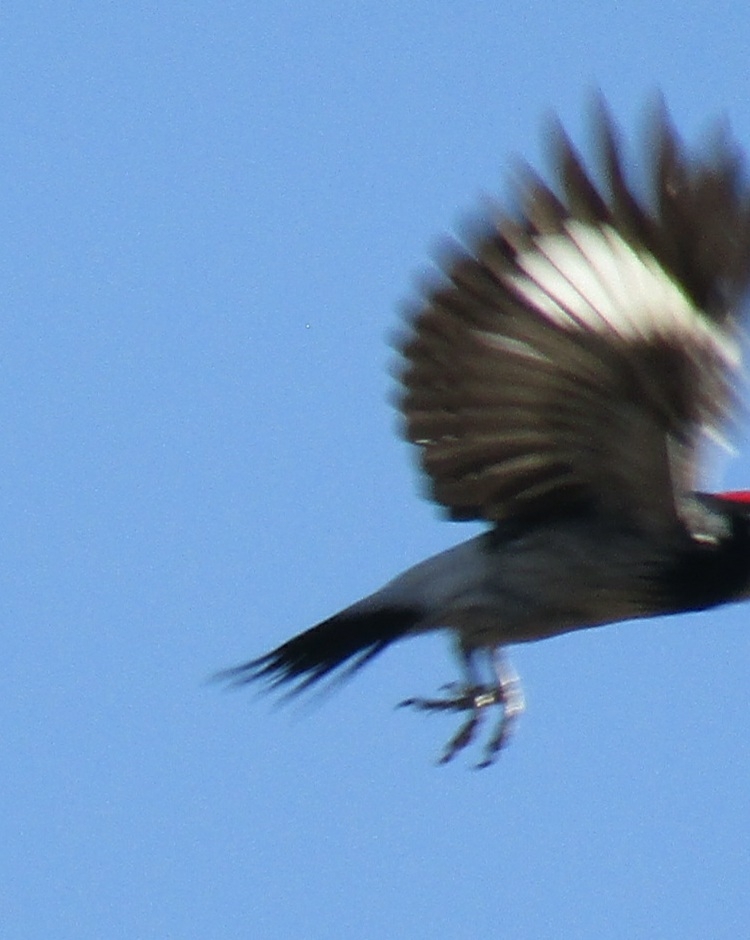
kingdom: Animalia
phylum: Chordata
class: Aves
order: Piciformes
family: Picidae
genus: Melanerpes
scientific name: Melanerpes formicivorus
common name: Acorn woodpecker
